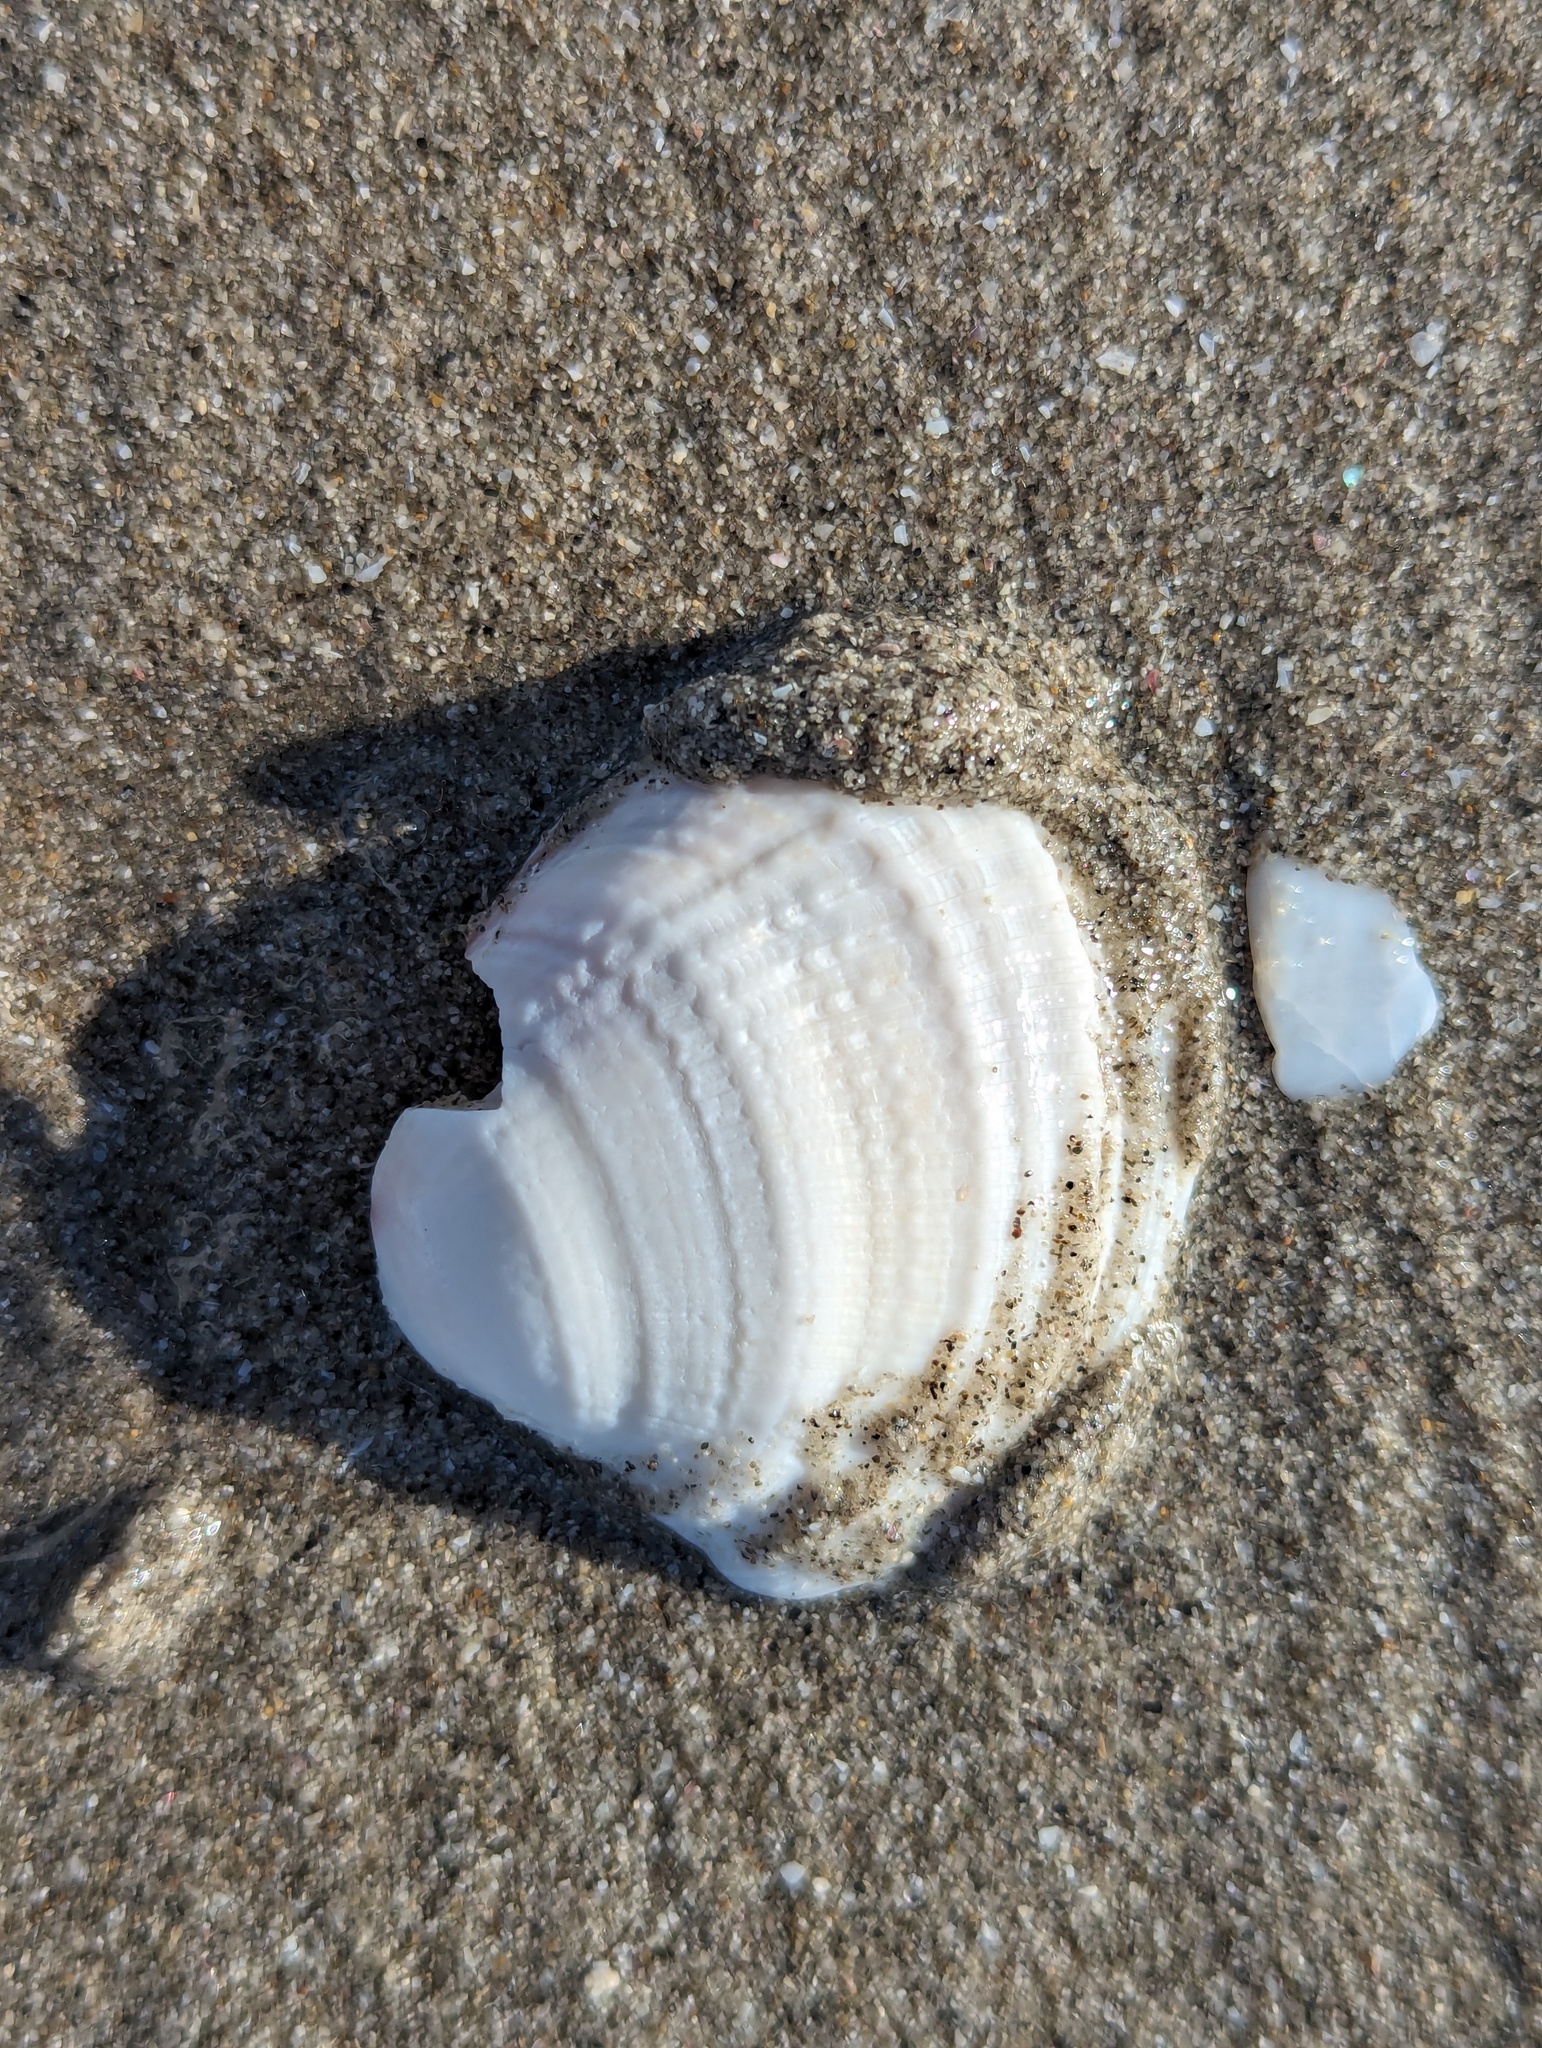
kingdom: Animalia
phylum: Mollusca
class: Bivalvia
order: Venerida
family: Veneridae
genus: Austrovenus
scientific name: Austrovenus stutchburyi
